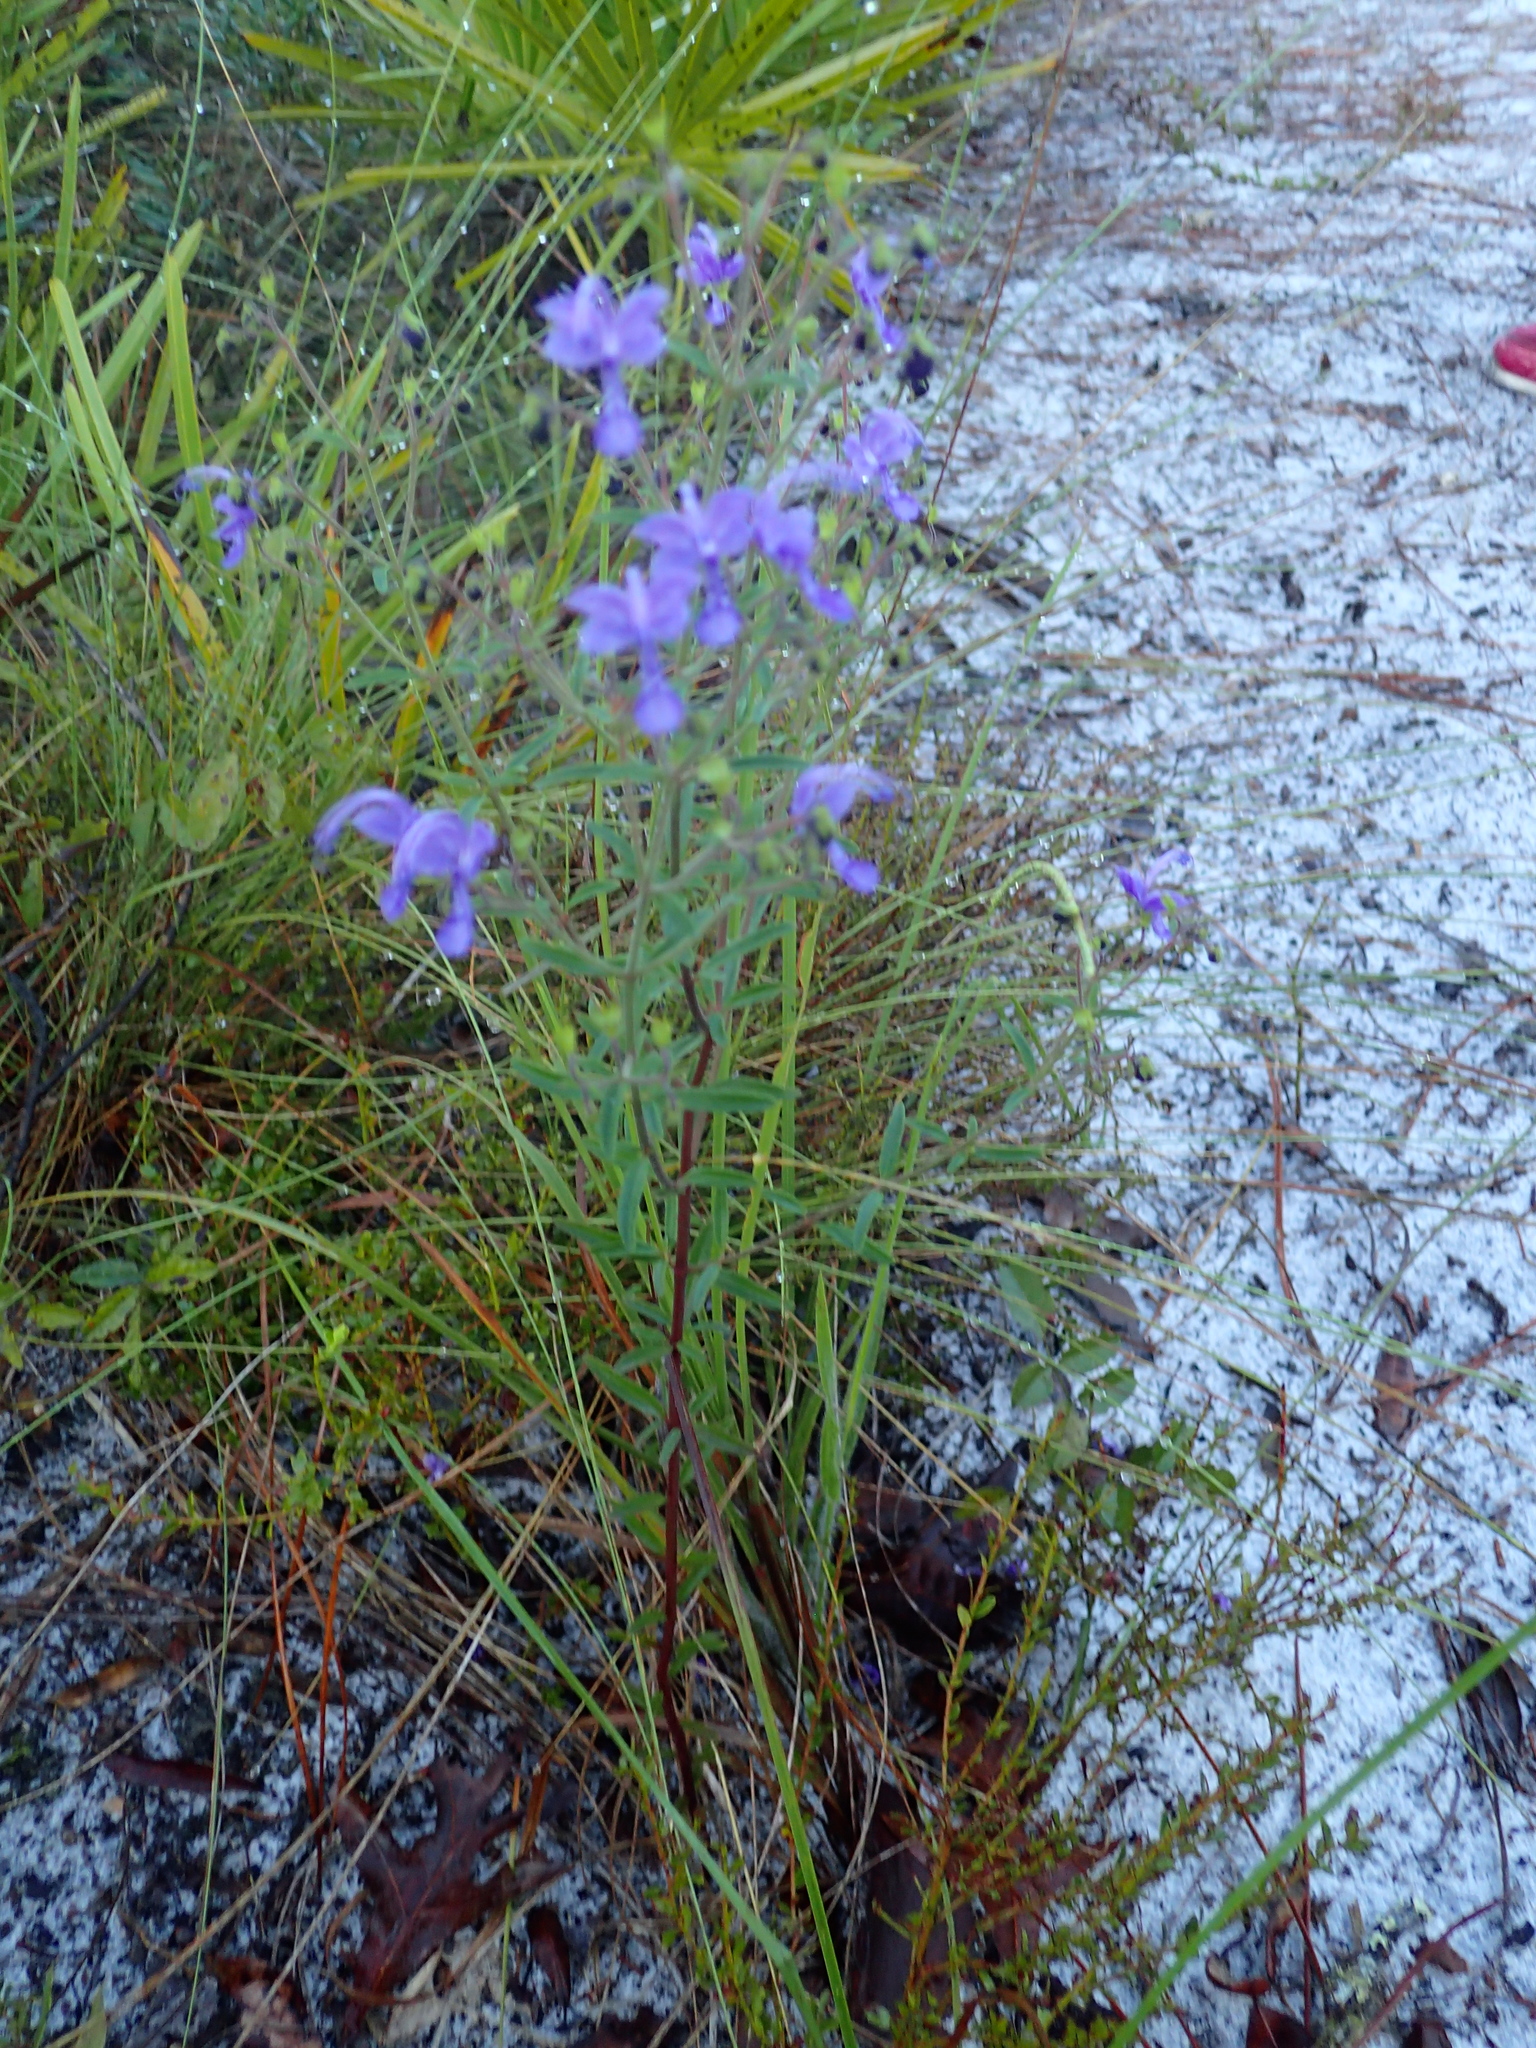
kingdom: Plantae
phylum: Tracheophyta
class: Magnoliopsida
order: Lamiales
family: Lamiaceae
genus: Trichostema
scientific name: Trichostema gracile
